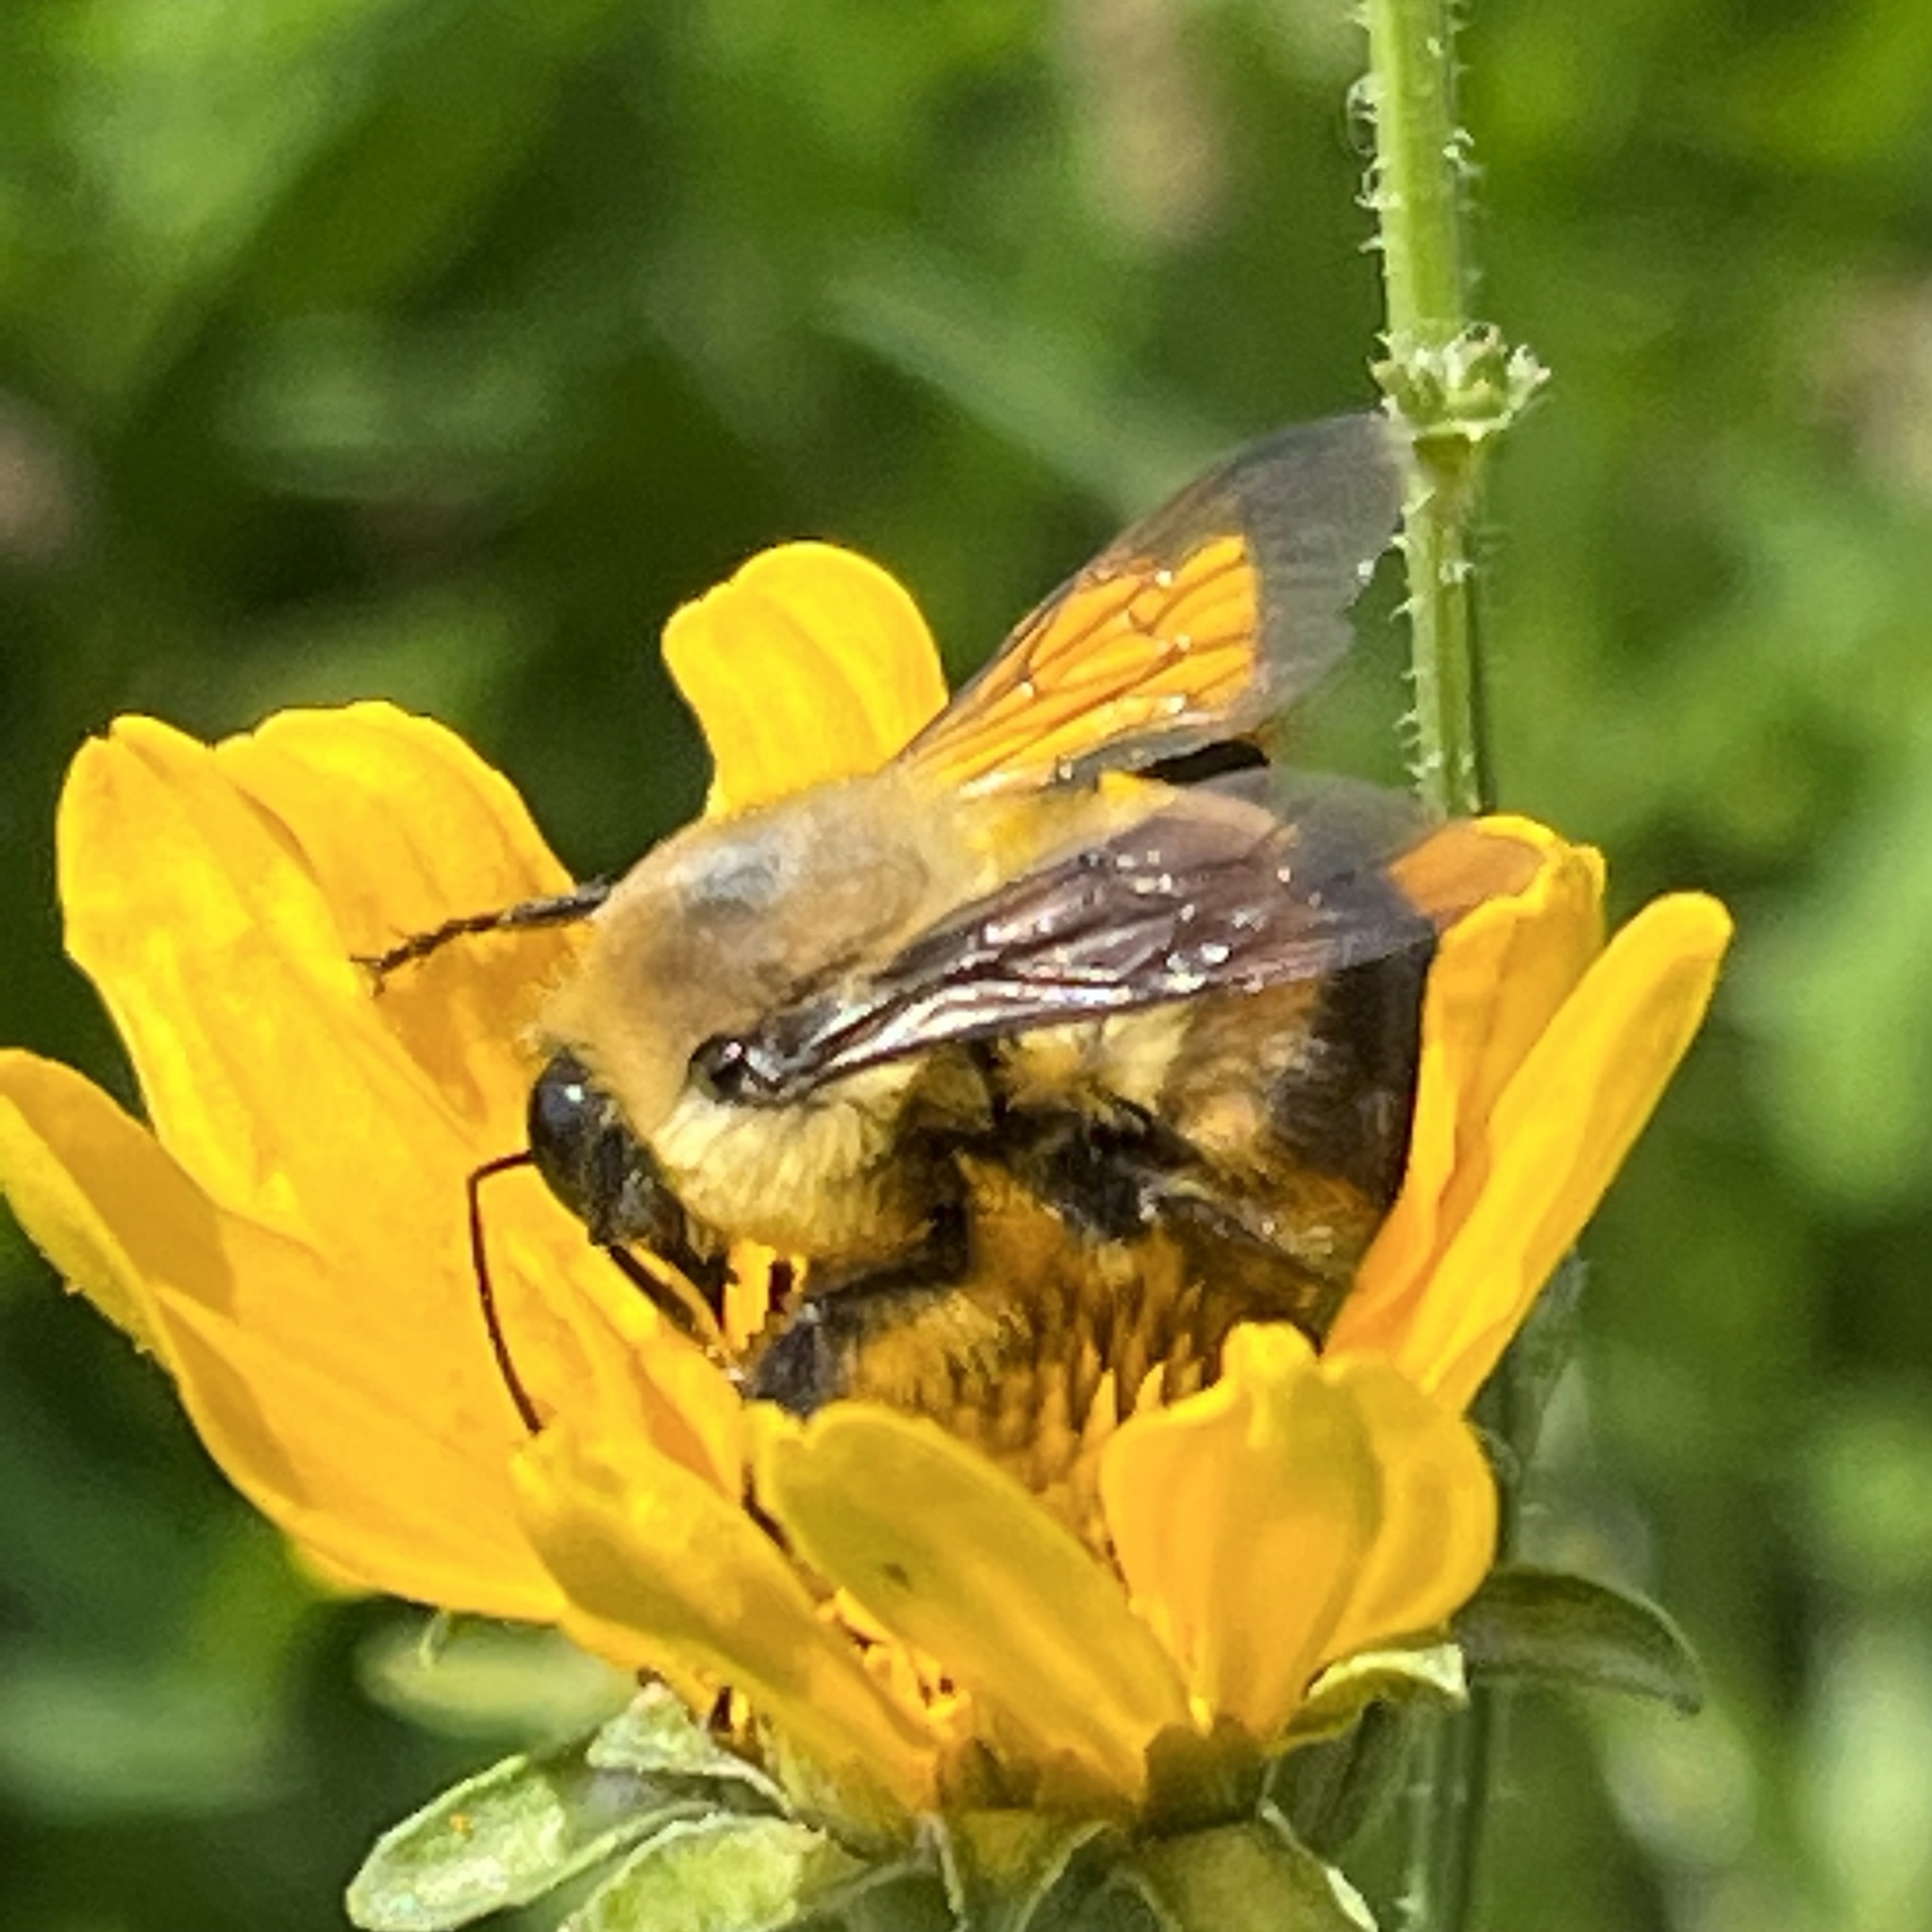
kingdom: Animalia
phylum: Arthropoda
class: Insecta
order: Hymenoptera
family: Apidae
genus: Bombus
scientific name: Bombus griseocollis
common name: Brown-belted bumble bee
